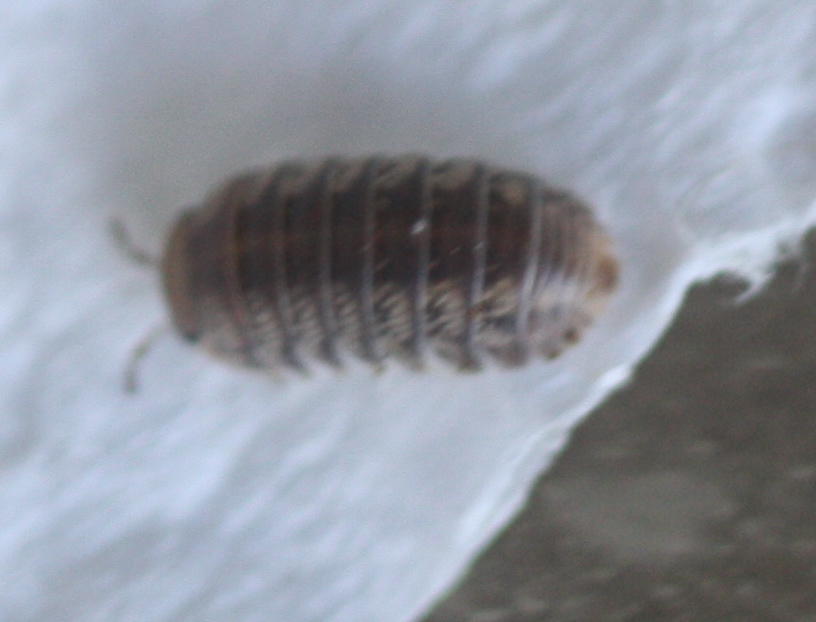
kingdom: Animalia
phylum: Arthropoda
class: Malacostraca
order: Isopoda
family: Armadillidae
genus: Venezillo
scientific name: Venezillo parvus
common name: Pillbug
